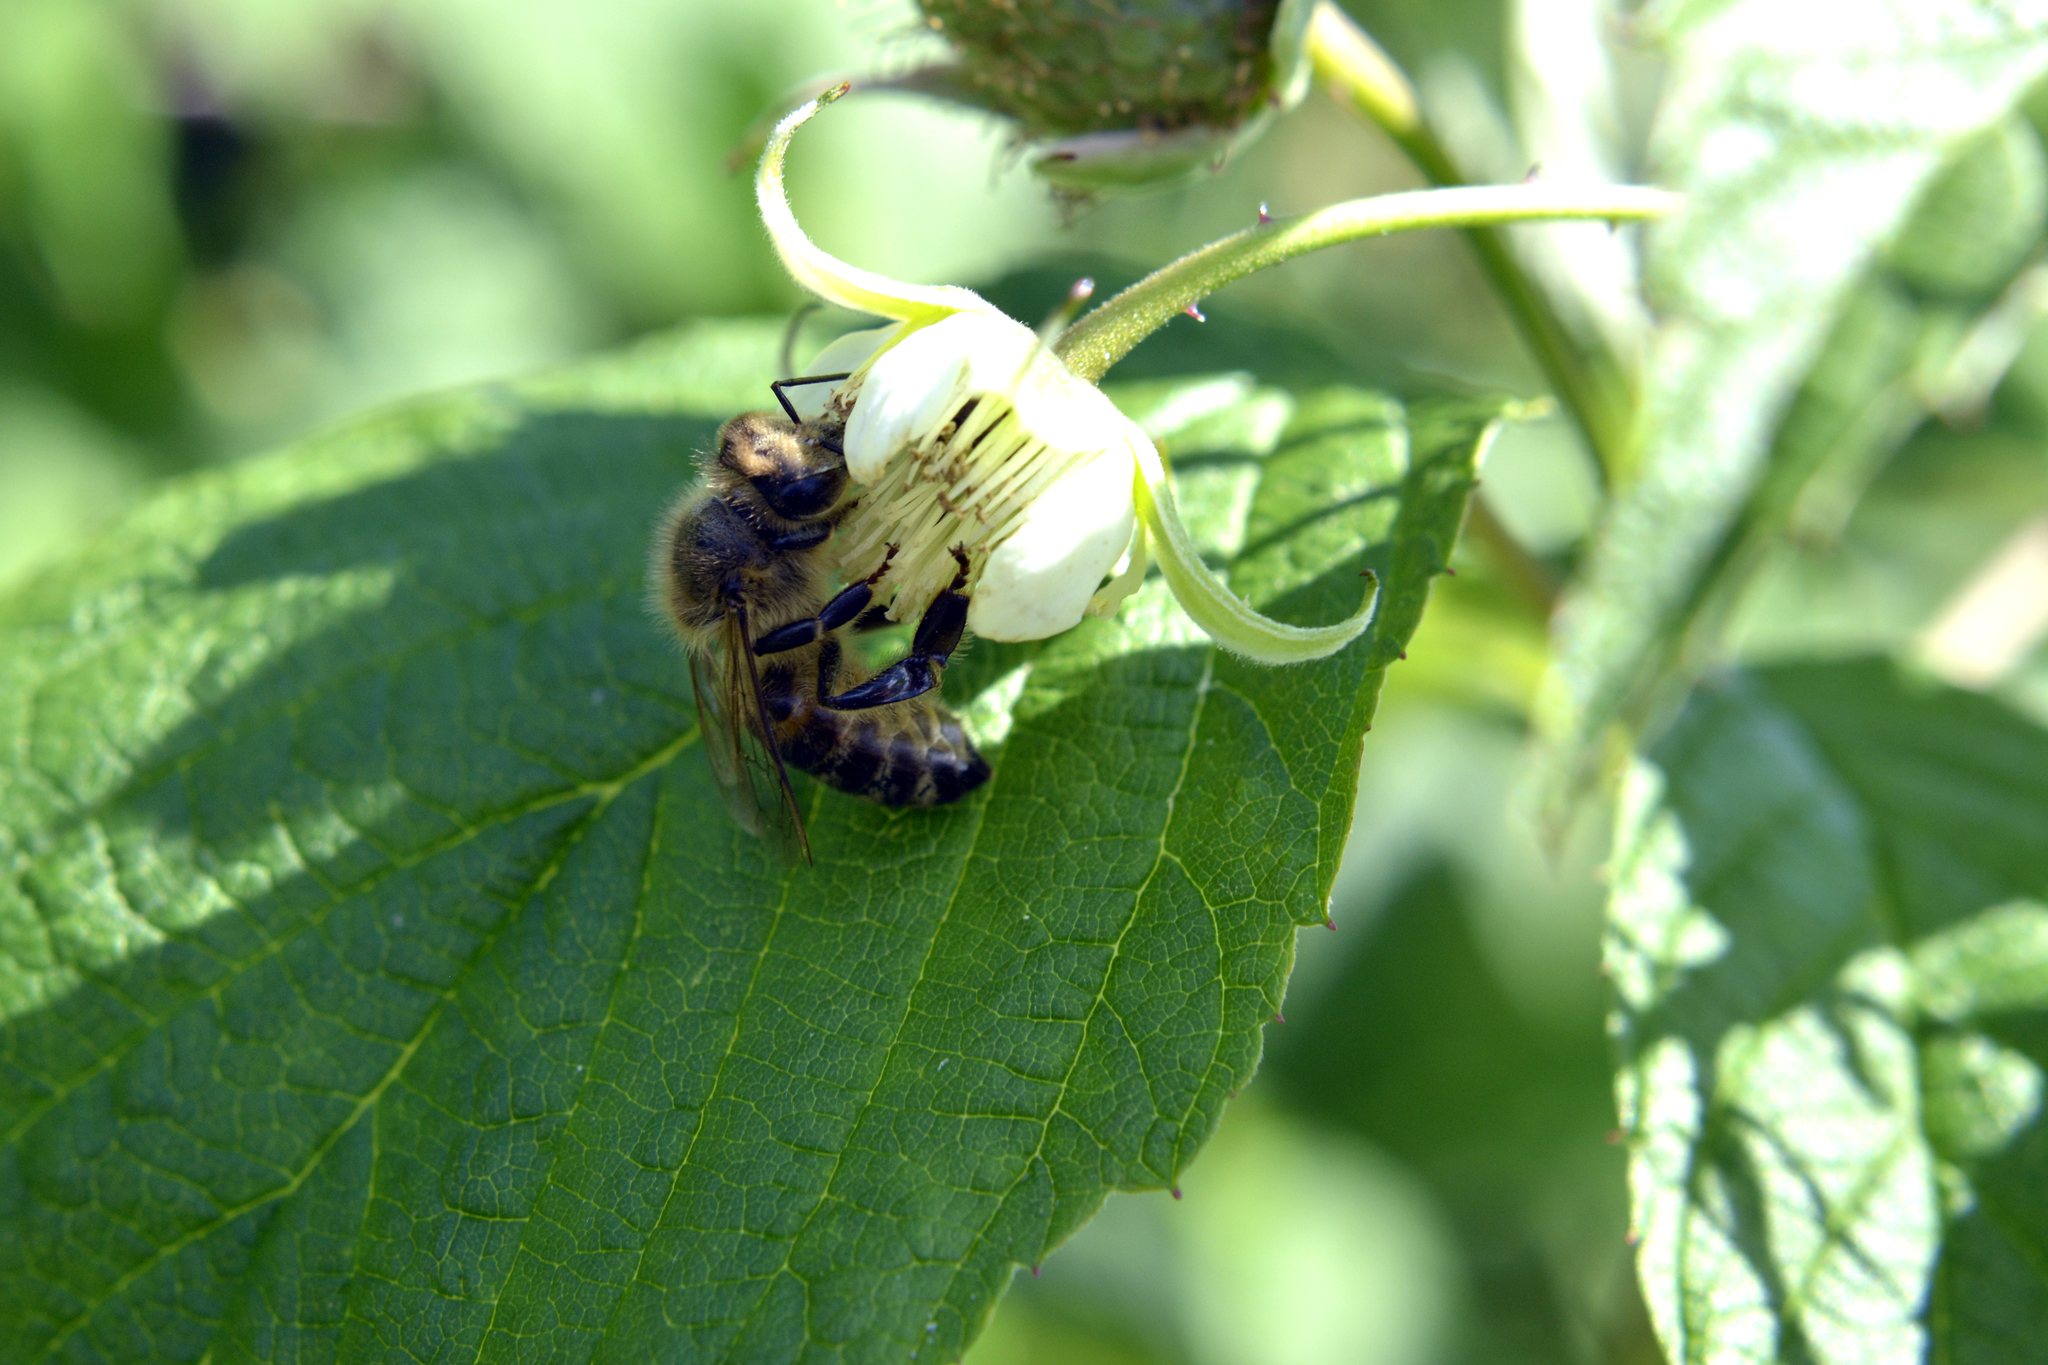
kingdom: Animalia
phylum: Arthropoda
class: Insecta
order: Hymenoptera
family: Apidae
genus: Apis
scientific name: Apis mellifera
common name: Honey bee
